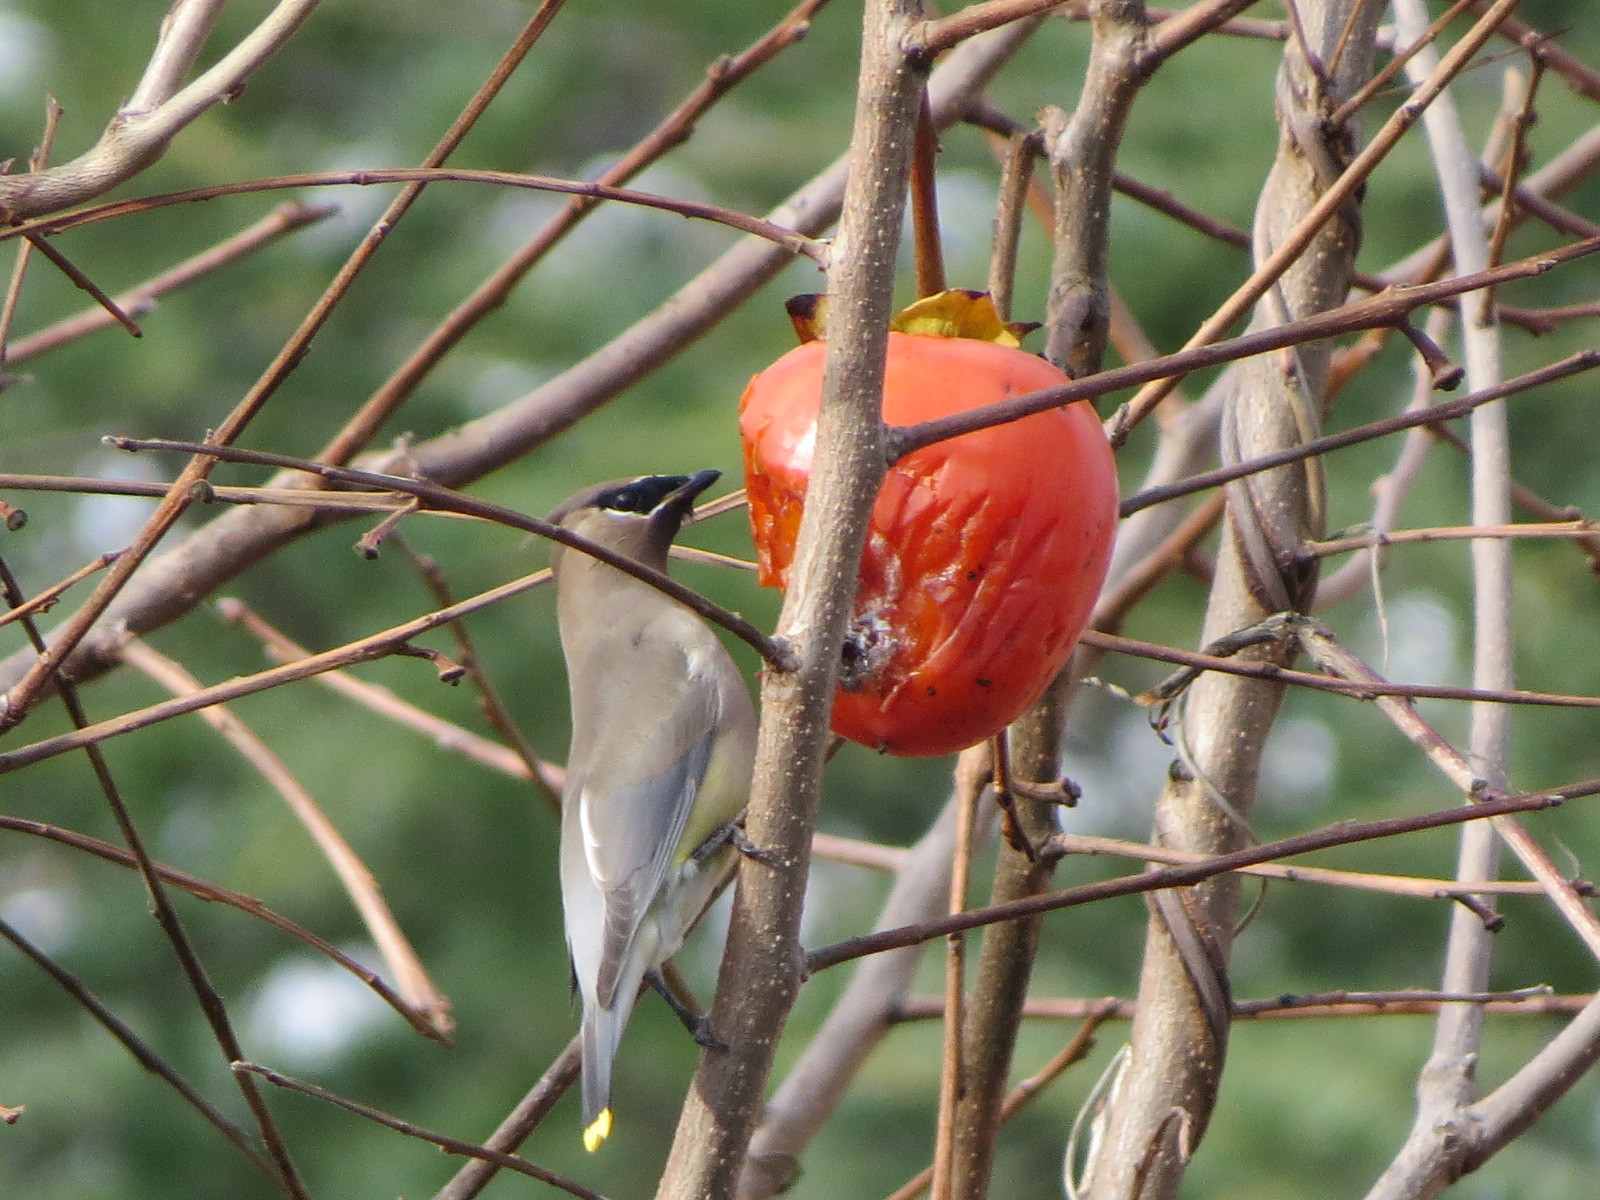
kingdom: Animalia
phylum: Chordata
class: Aves
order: Passeriformes
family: Bombycillidae
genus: Bombycilla
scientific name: Bombycilla cedrorum
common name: Cedar waxwing
